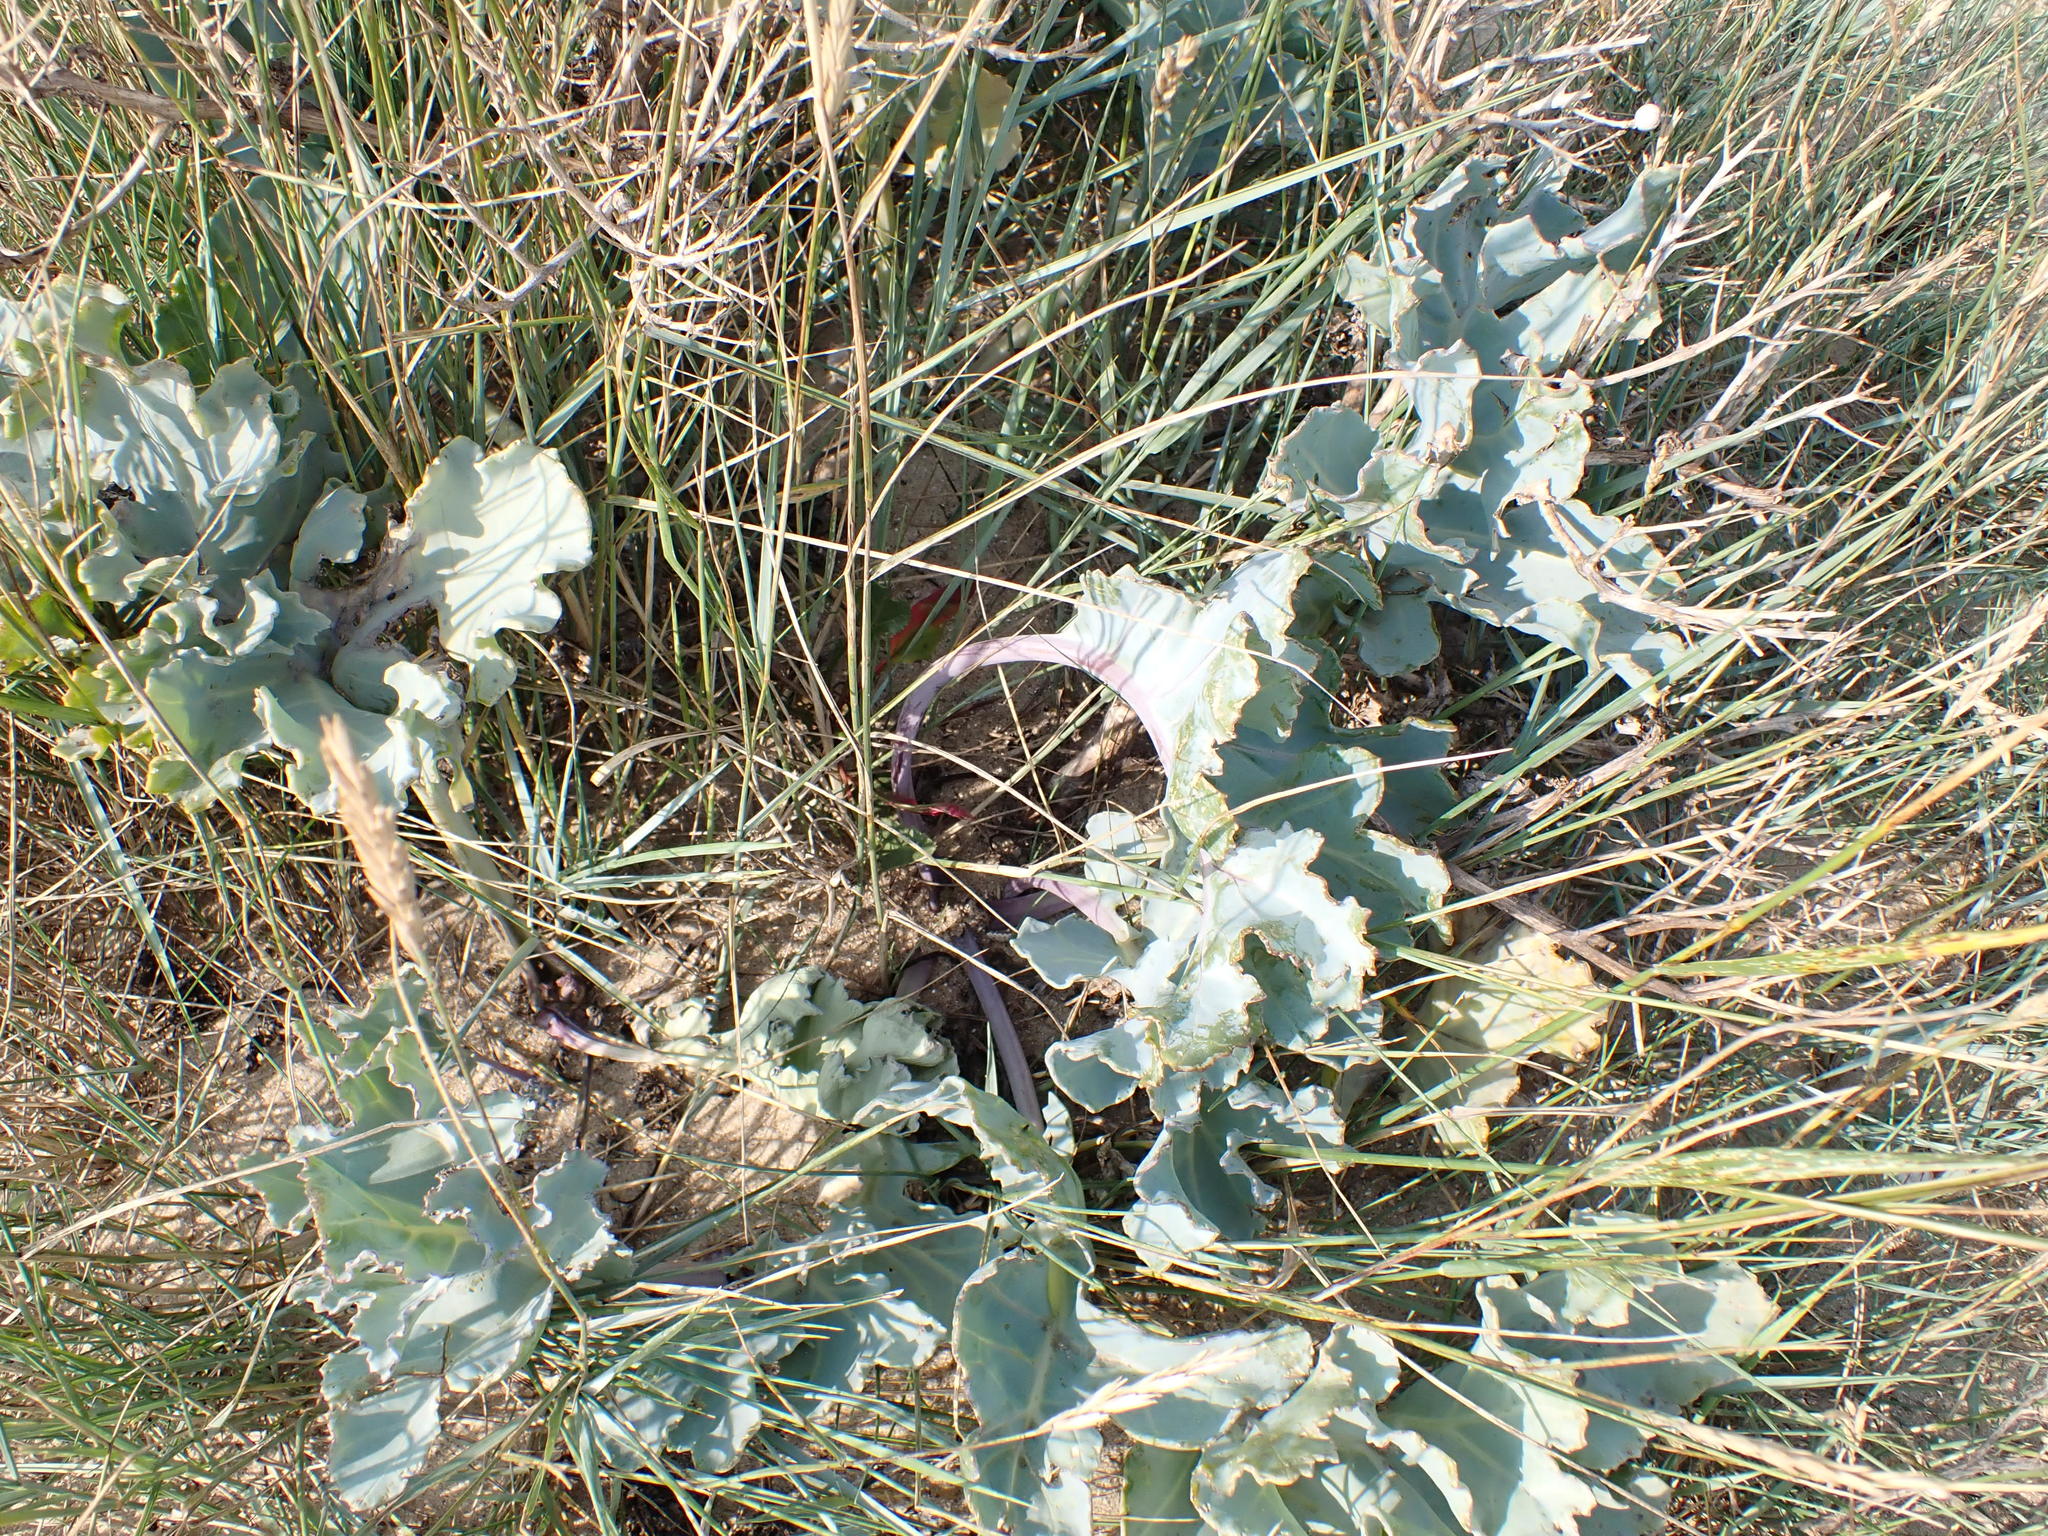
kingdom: Plantae
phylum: Tracheophyta
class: Magnoliopsida
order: Brassicales
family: Brassicaceae
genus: Crambe
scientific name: Crambe maritima
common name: Sea-kale
